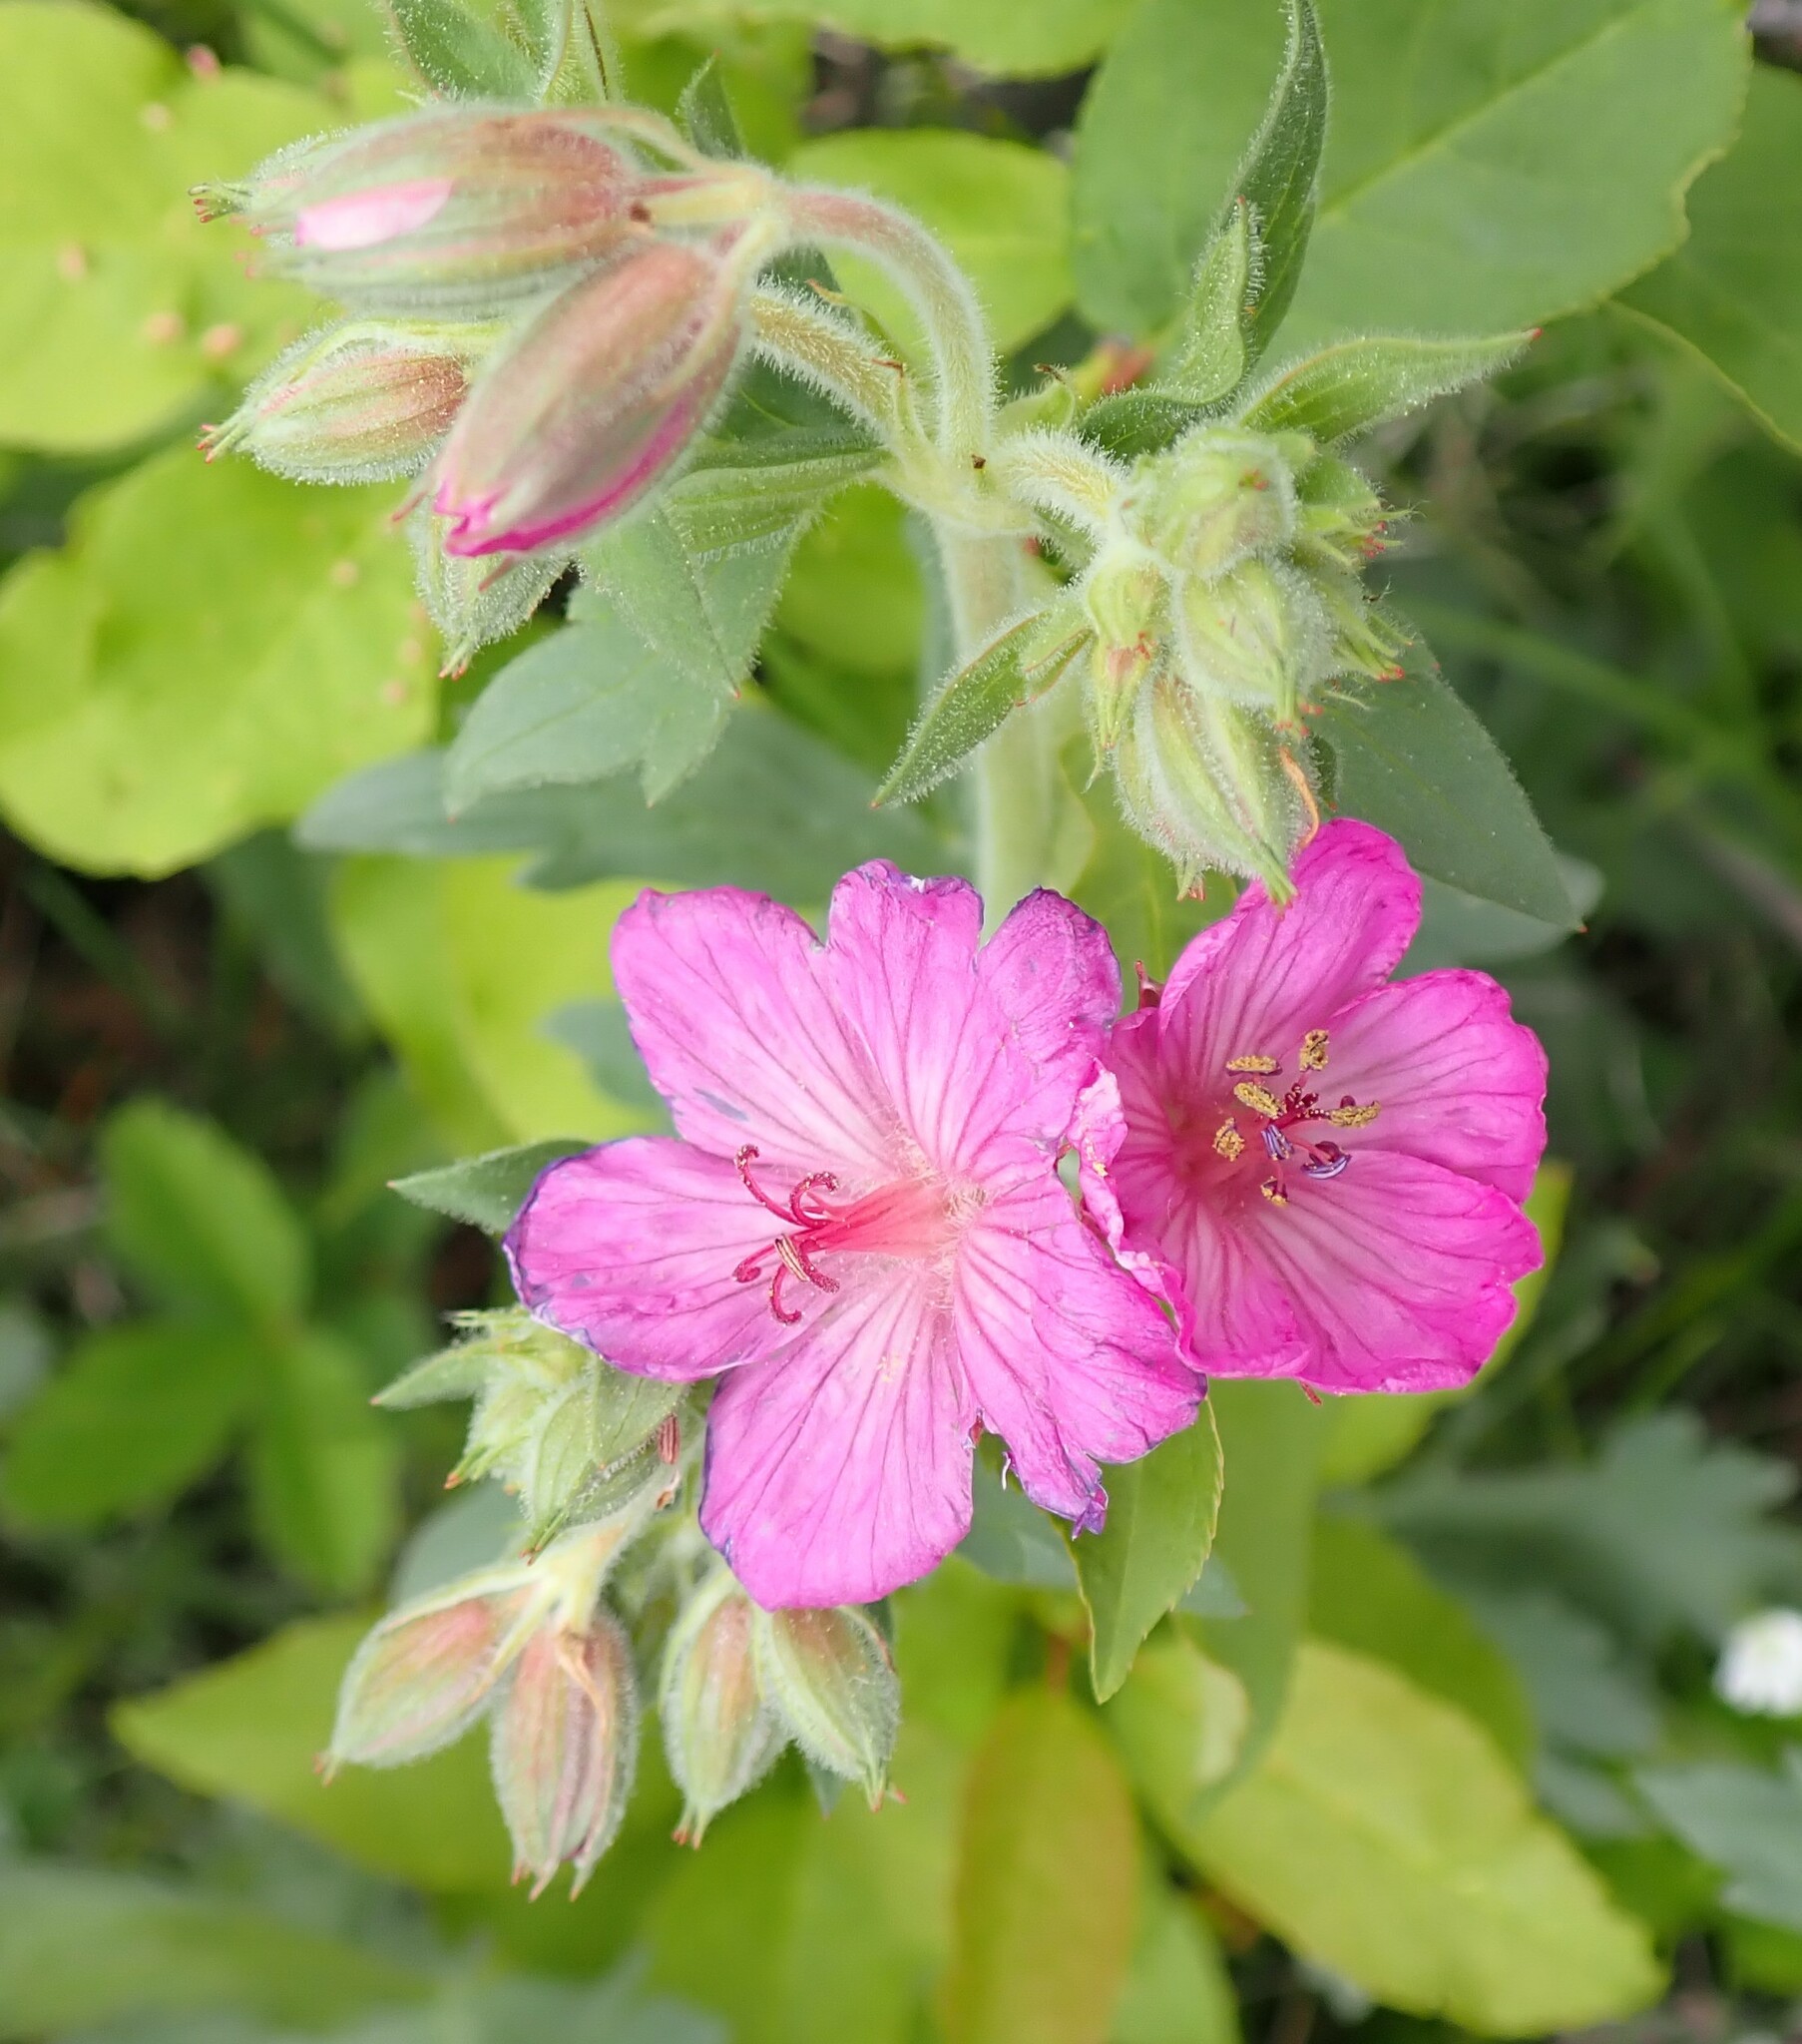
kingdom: Plantae
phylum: Tracheophyta
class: Magnoliopsida
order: Geraniales
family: Geraniaceae
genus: Geranium
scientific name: Geranium viscosissimum
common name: Purple geranium
